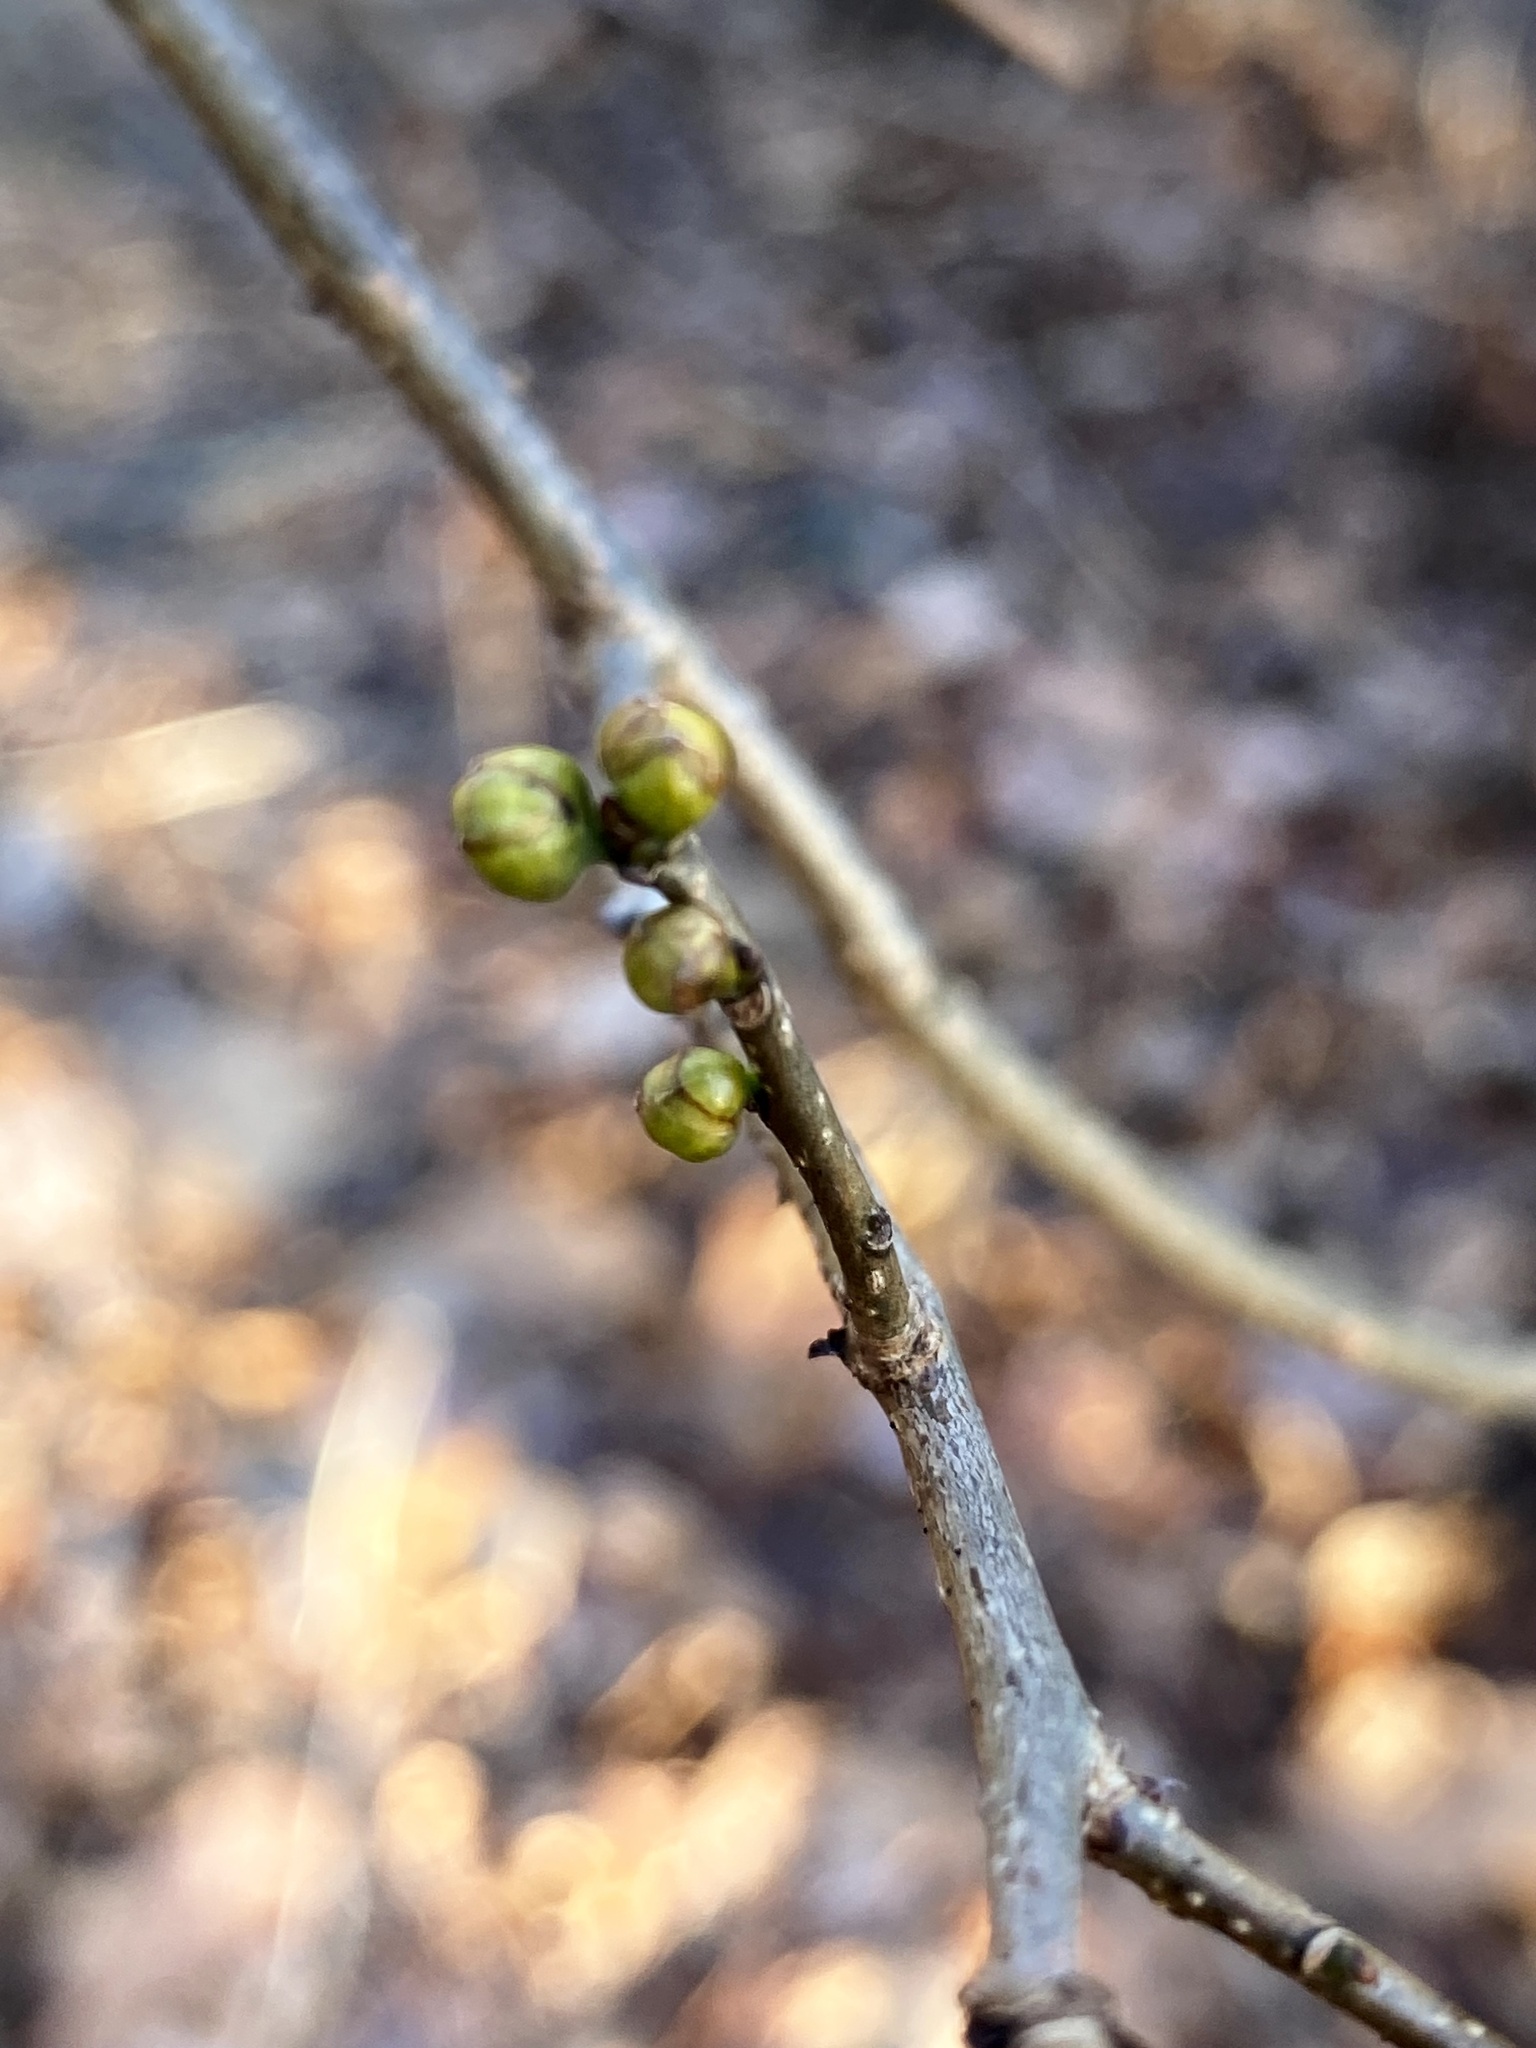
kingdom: Plantae
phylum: Tracheophyta
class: Magnoliopsida
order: Laurales
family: Lauraceae
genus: Lindera
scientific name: Lindera benzoin
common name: Spicebush
